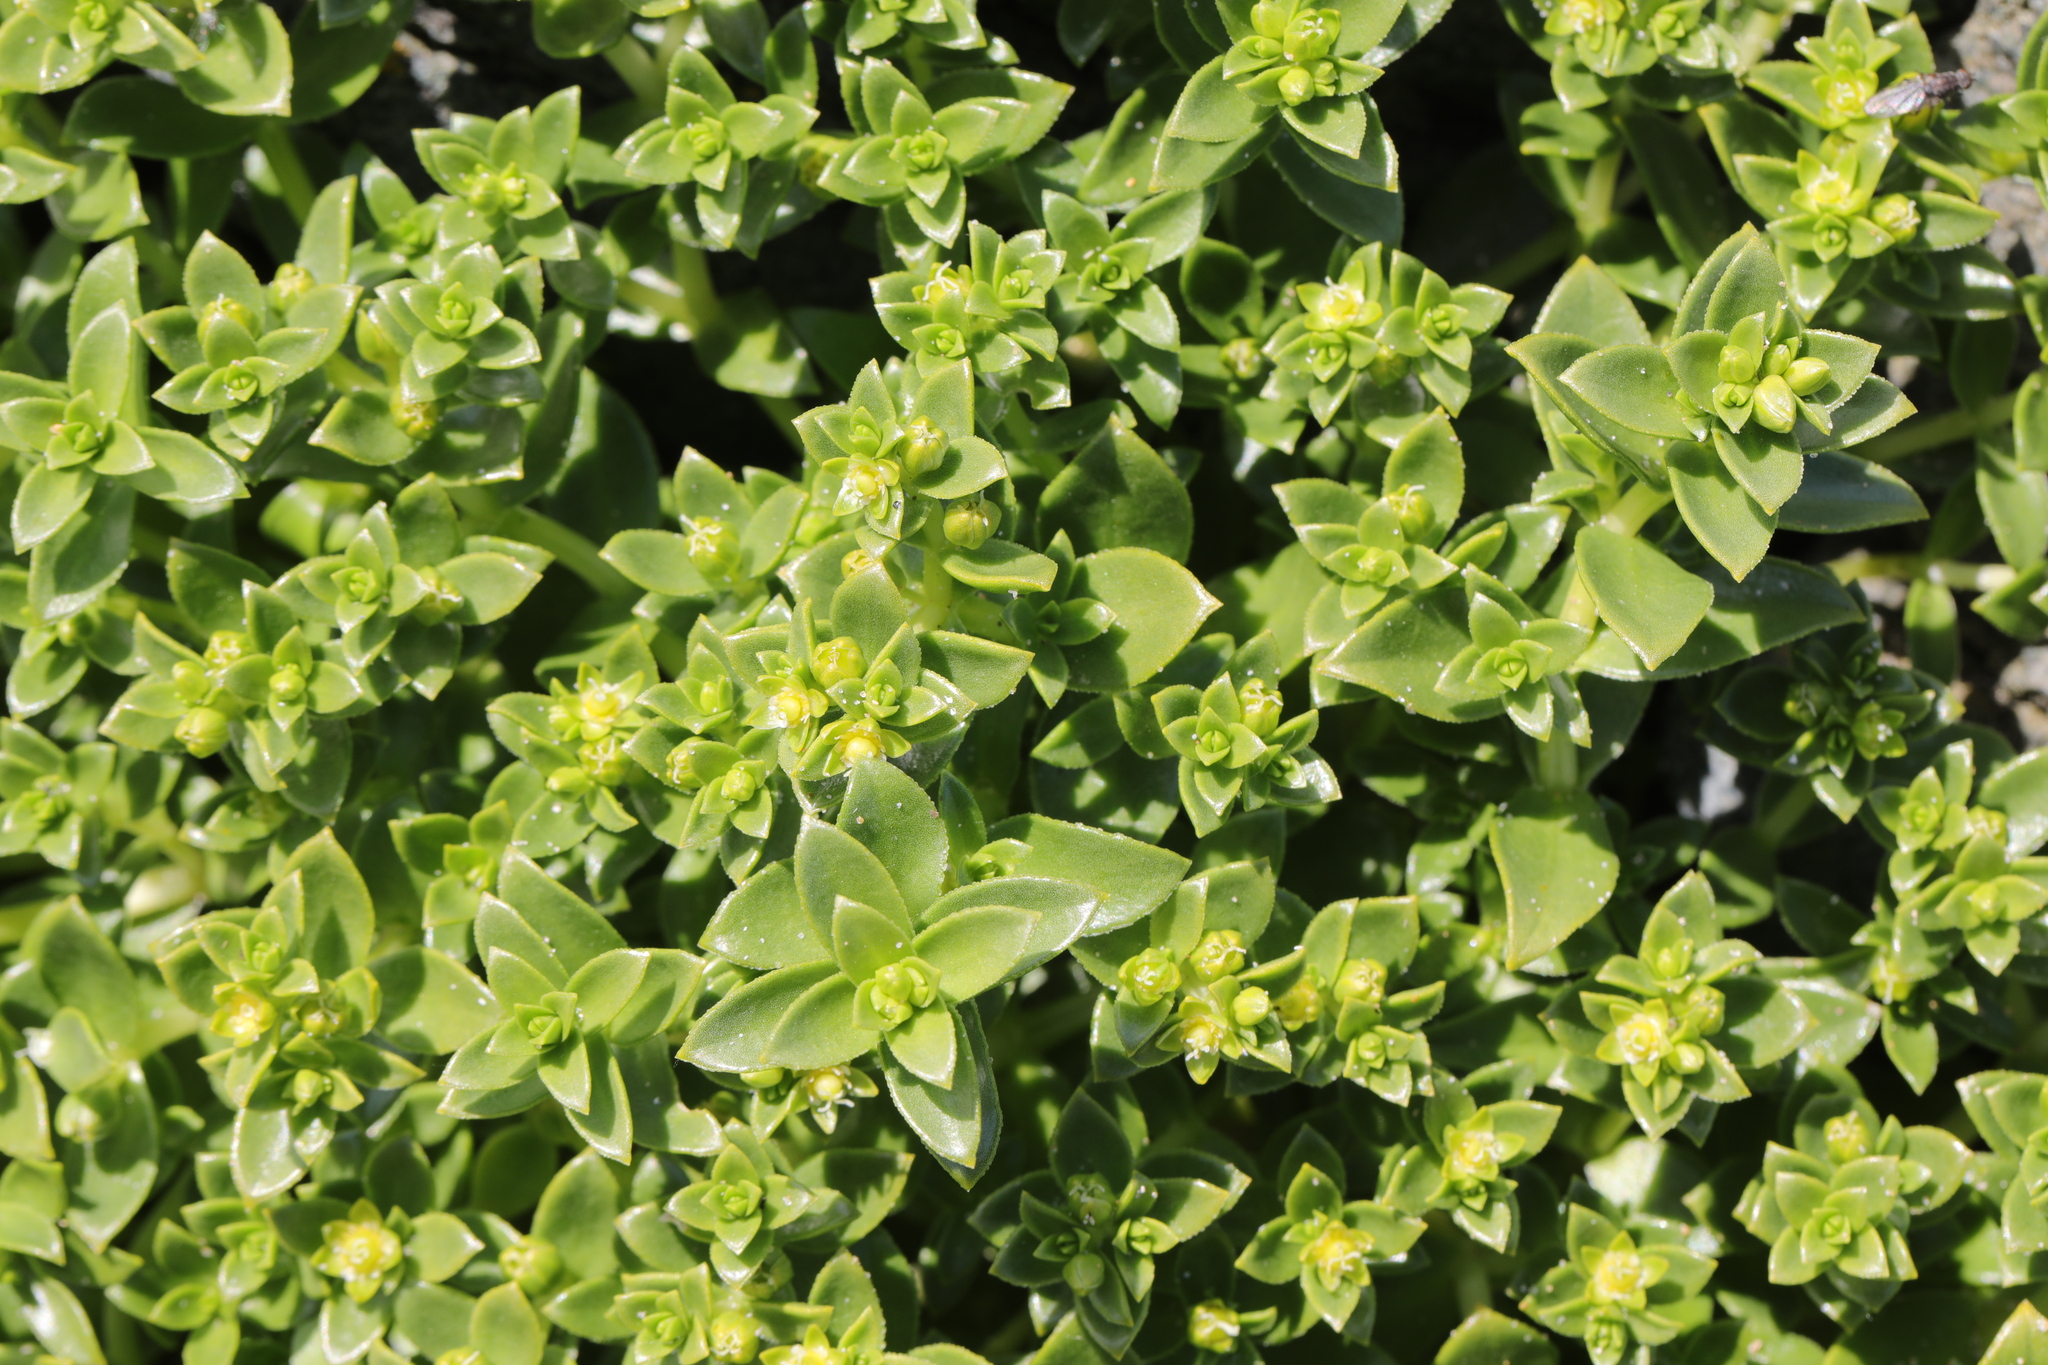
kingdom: Plantae
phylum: Tracheophyta
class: Magnoliopsida
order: Caryophyllales
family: Caryophyllaceae
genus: Honckenya
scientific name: Honckenya peploides
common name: Sea sandwort
